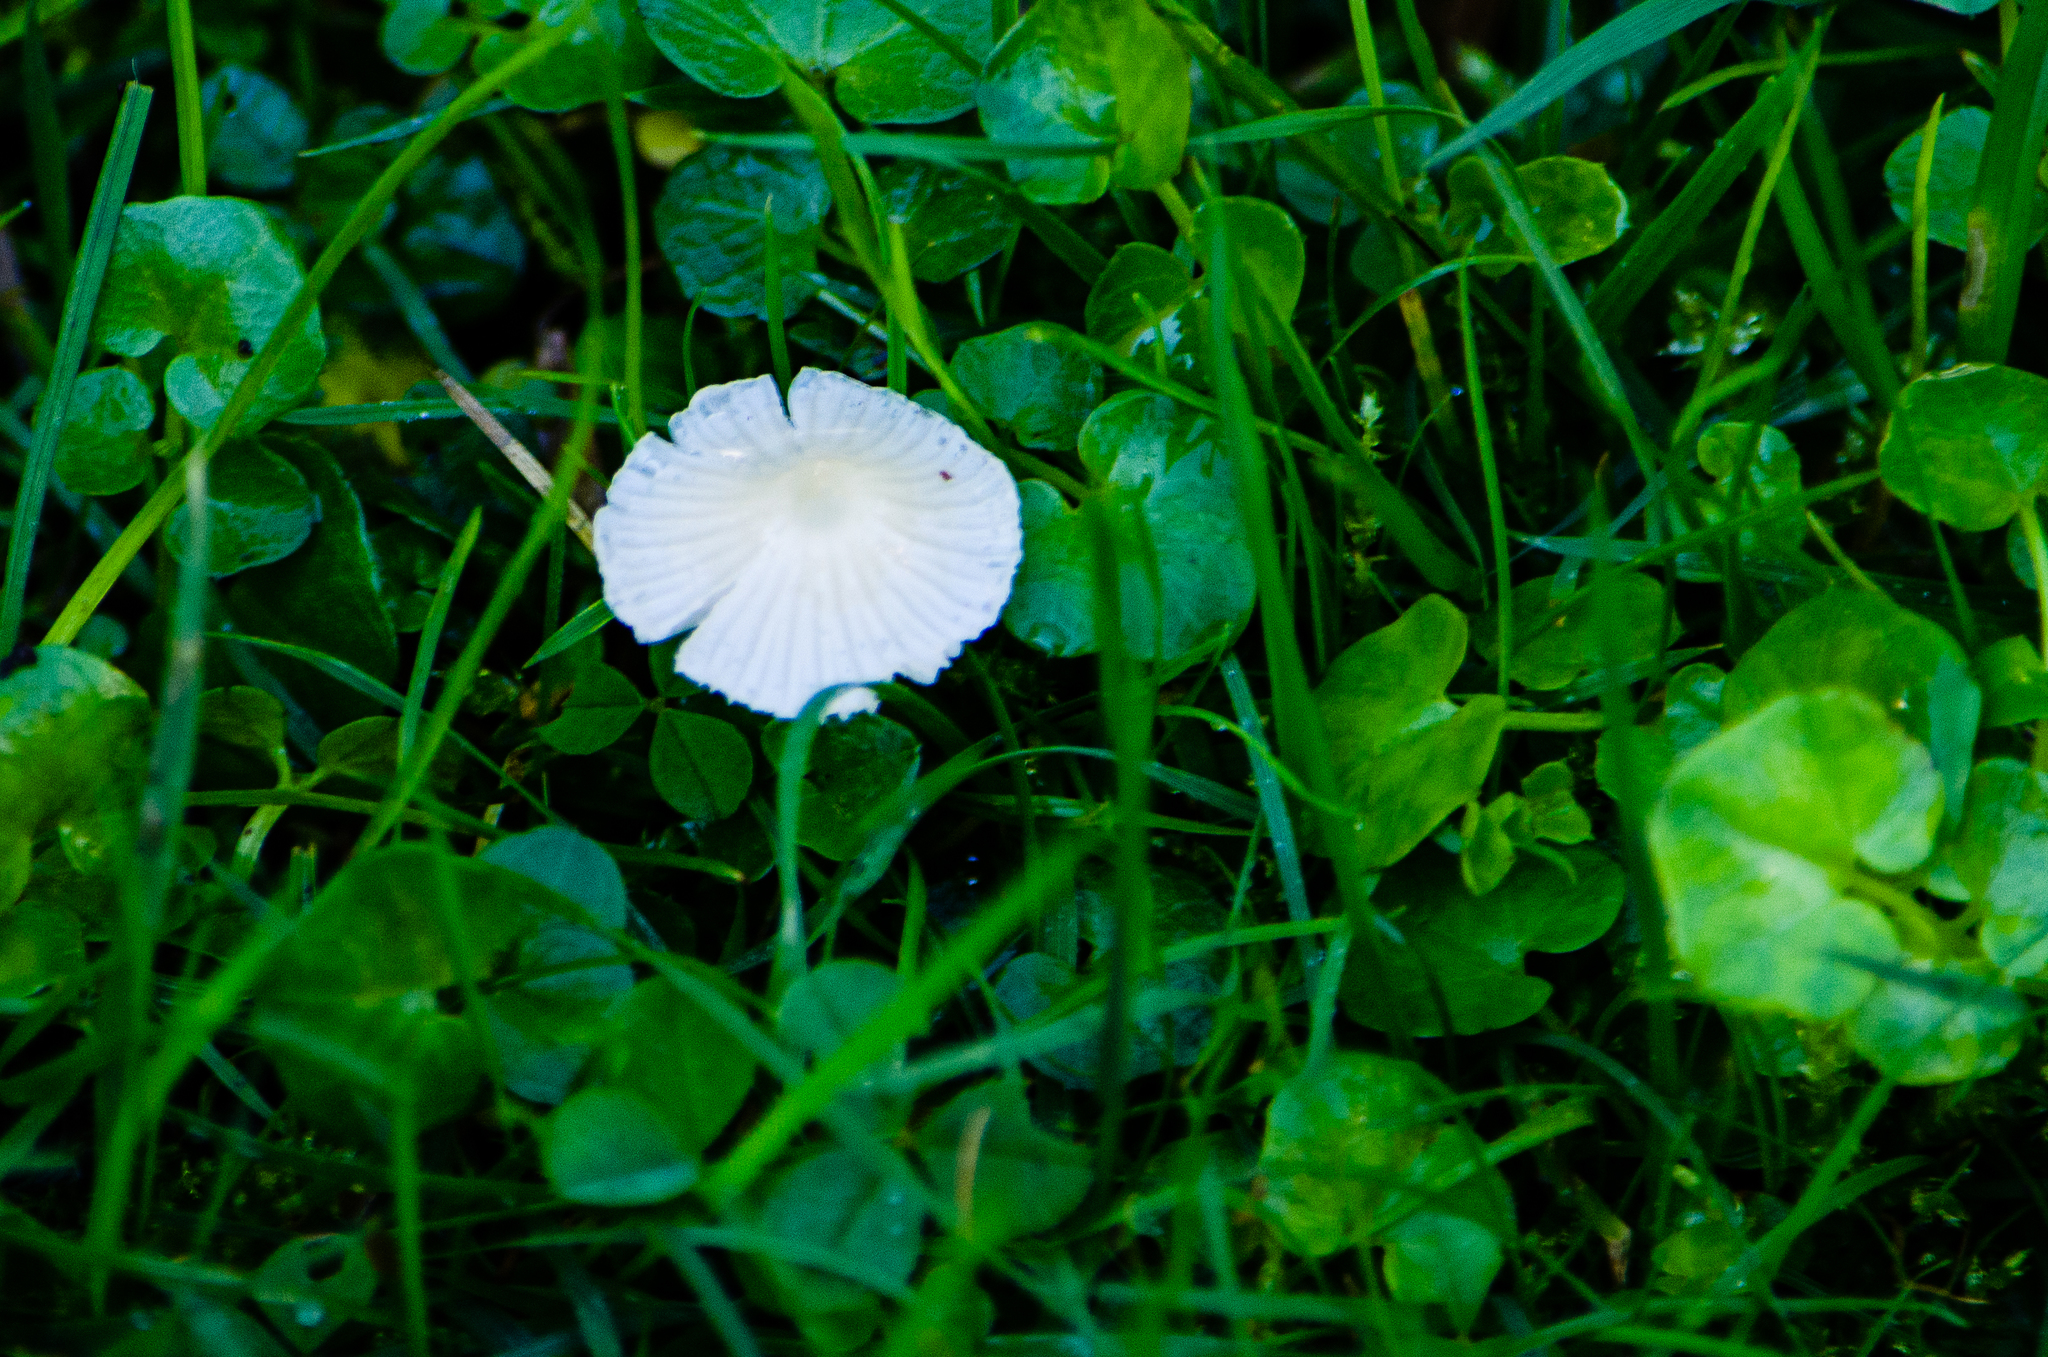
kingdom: Fungi
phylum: Basidiomycota
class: Agaricomycetes
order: Agaricales
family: Mycenaceae
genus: Atheniella
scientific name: Atheniella flavoalba
